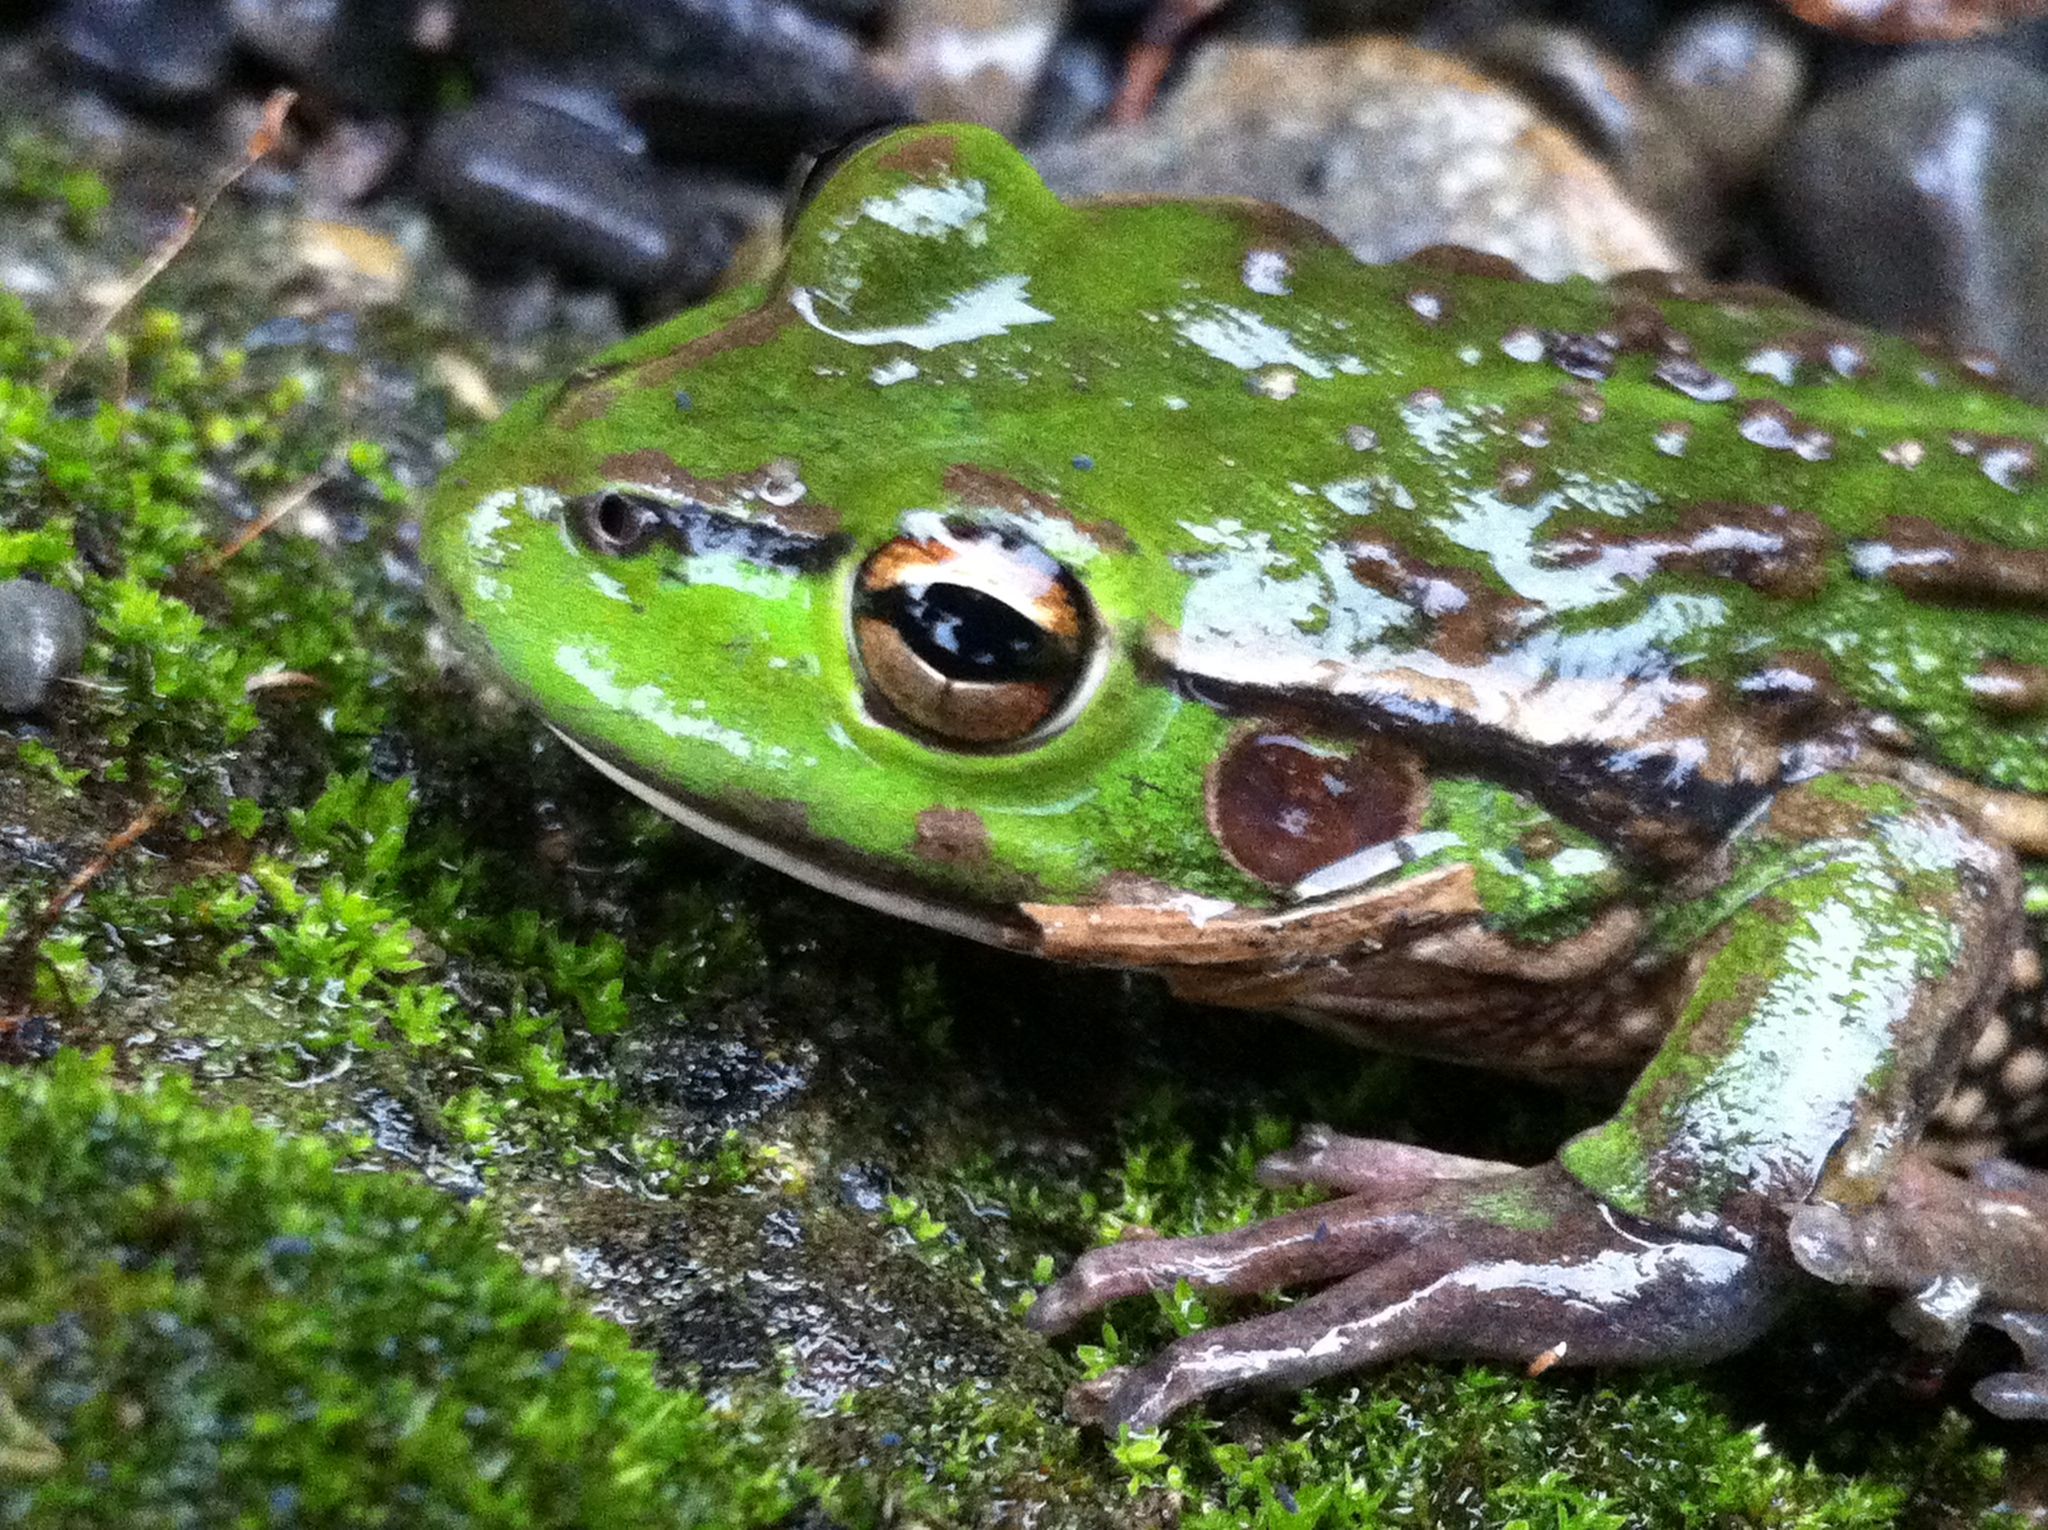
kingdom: Animalia
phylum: Chordata
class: Amphibia
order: Anura
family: Pelodryadidae
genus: Ranoidea
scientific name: Ranoidea raniformis
